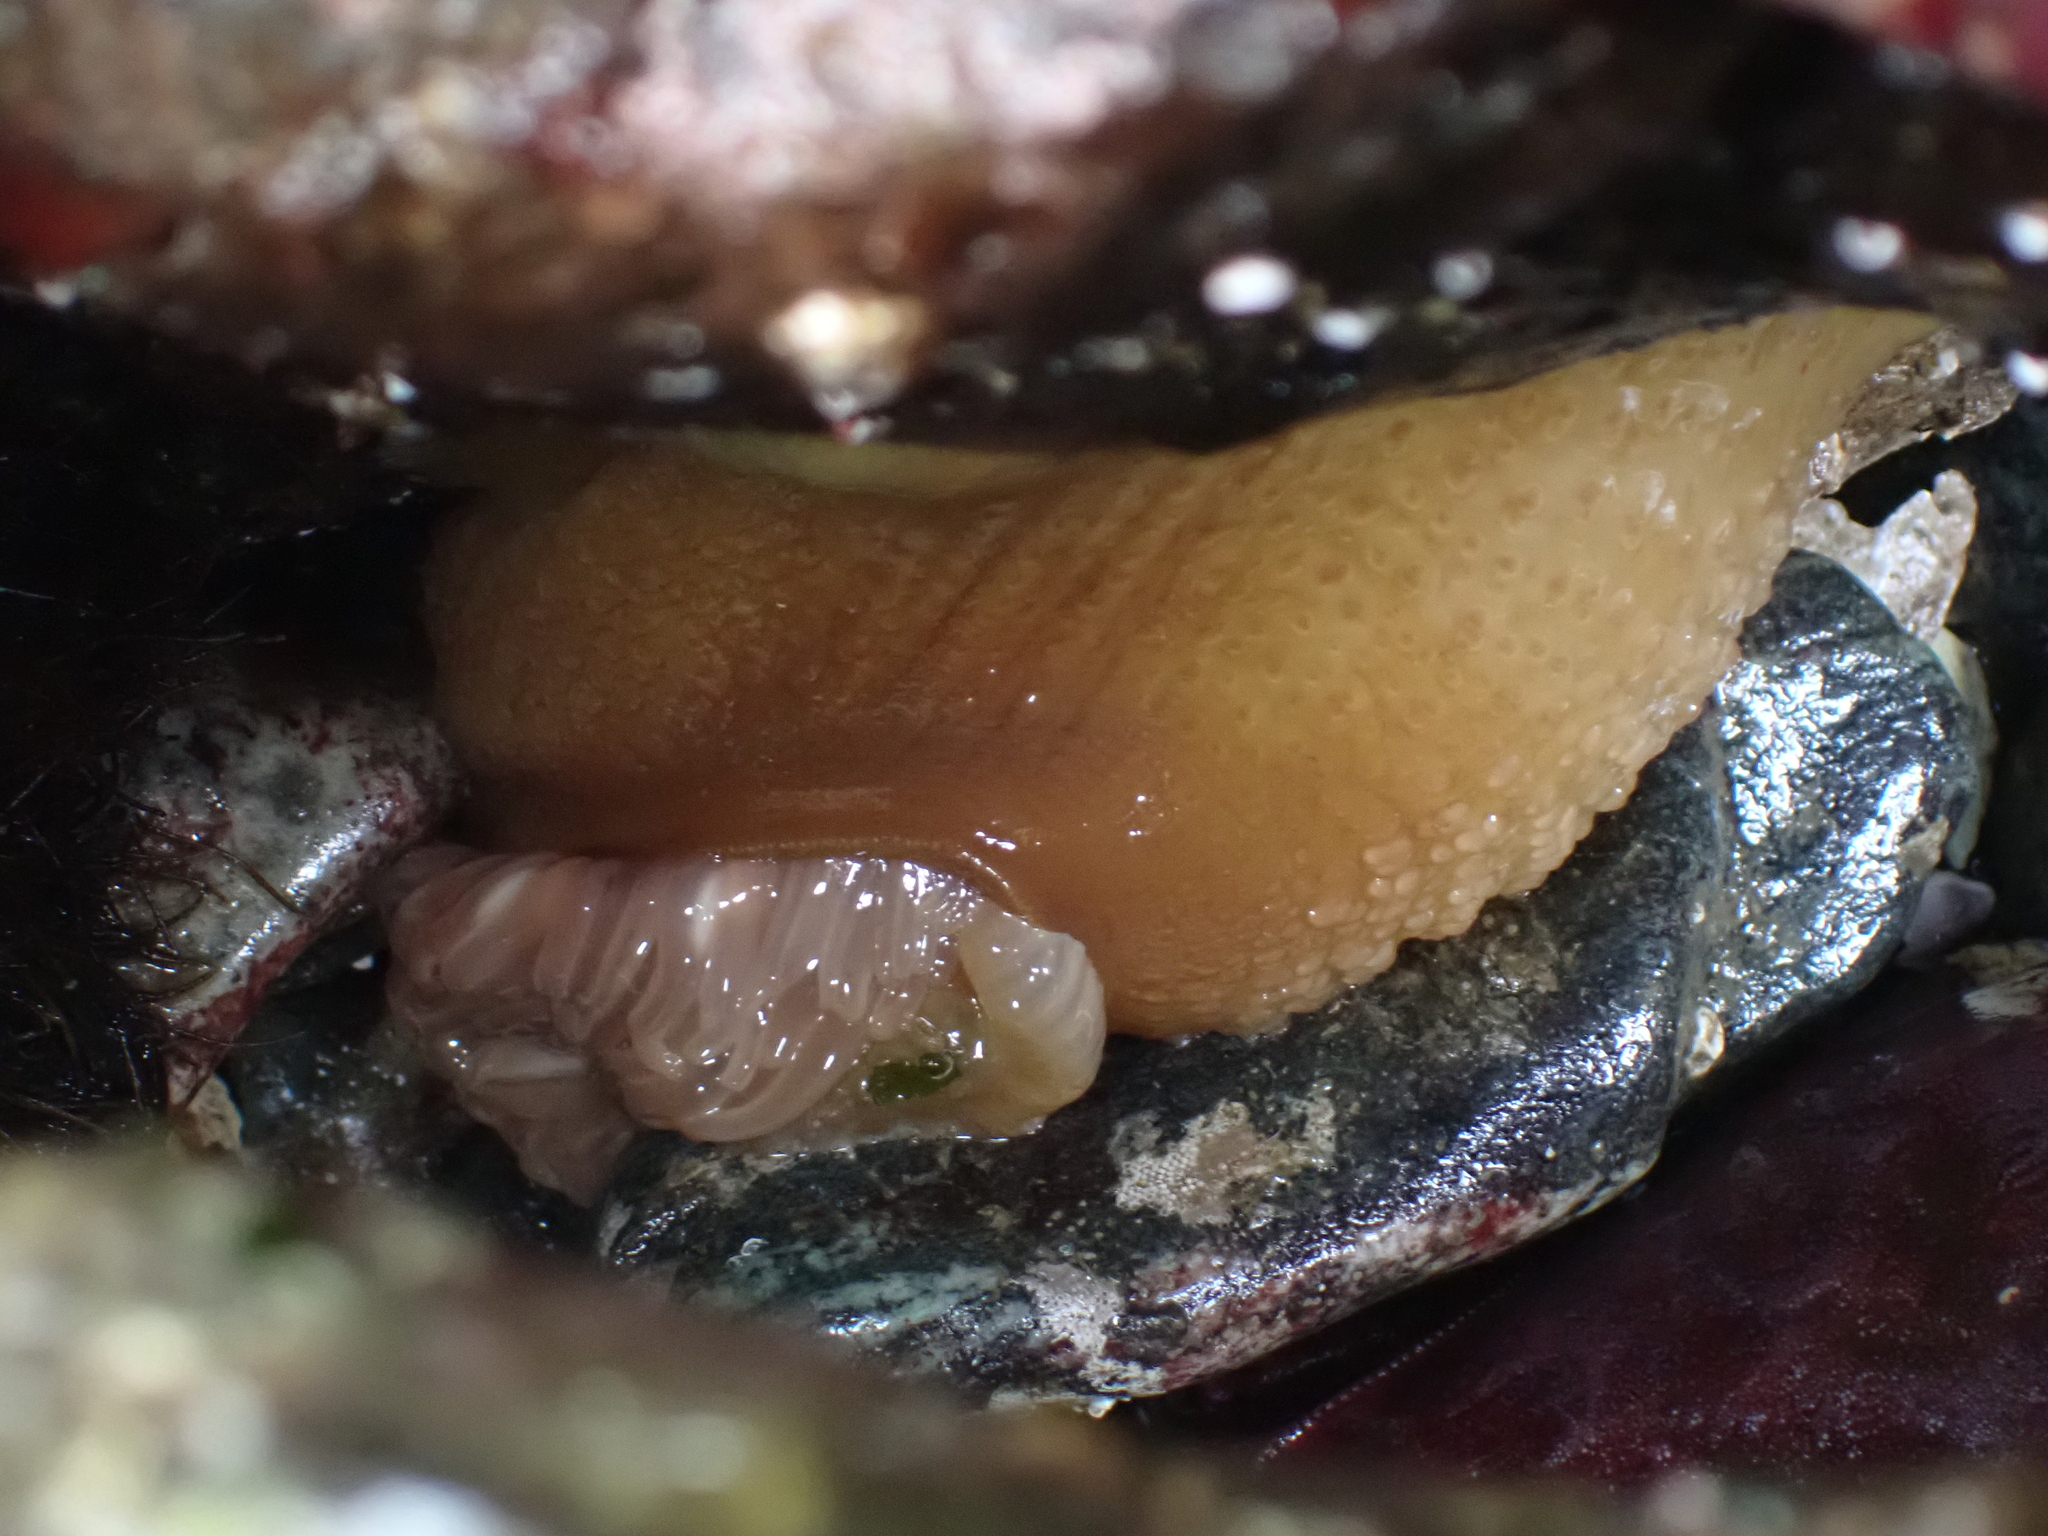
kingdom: Animalia
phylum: Cnidaria
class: Anthozoa
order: Actiniaria
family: Actiniidae
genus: Urticina
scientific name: Urticina grebelnyi
